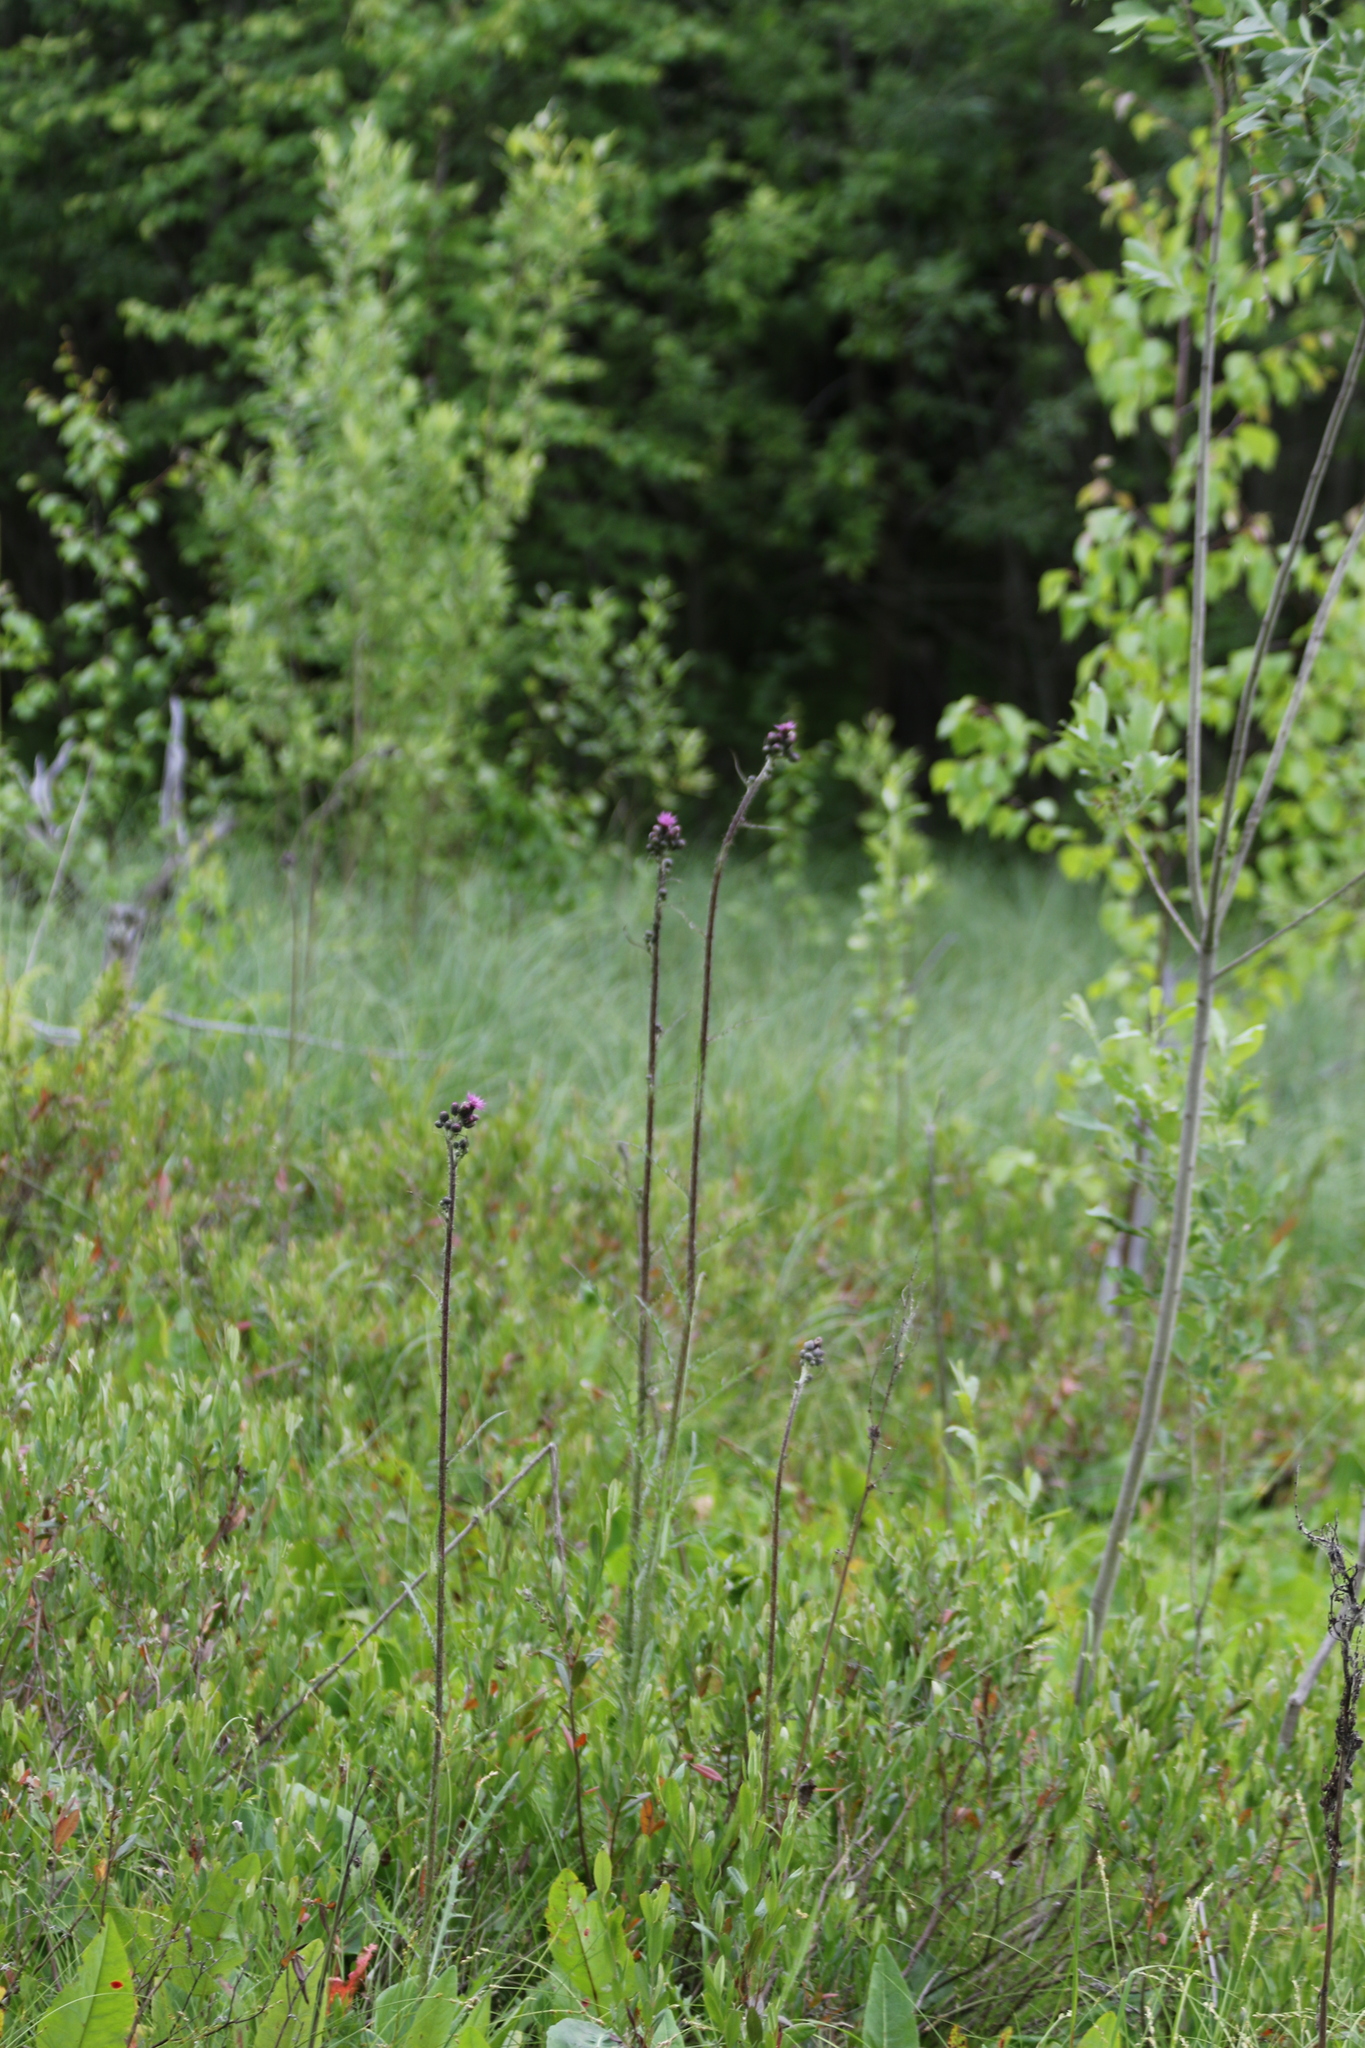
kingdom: Plantae
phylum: Tracheophyta
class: Magnoliopsida
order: Asterales
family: Asteraceae
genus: Cirsium
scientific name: Cirsium palustre
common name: Marsh thistle
